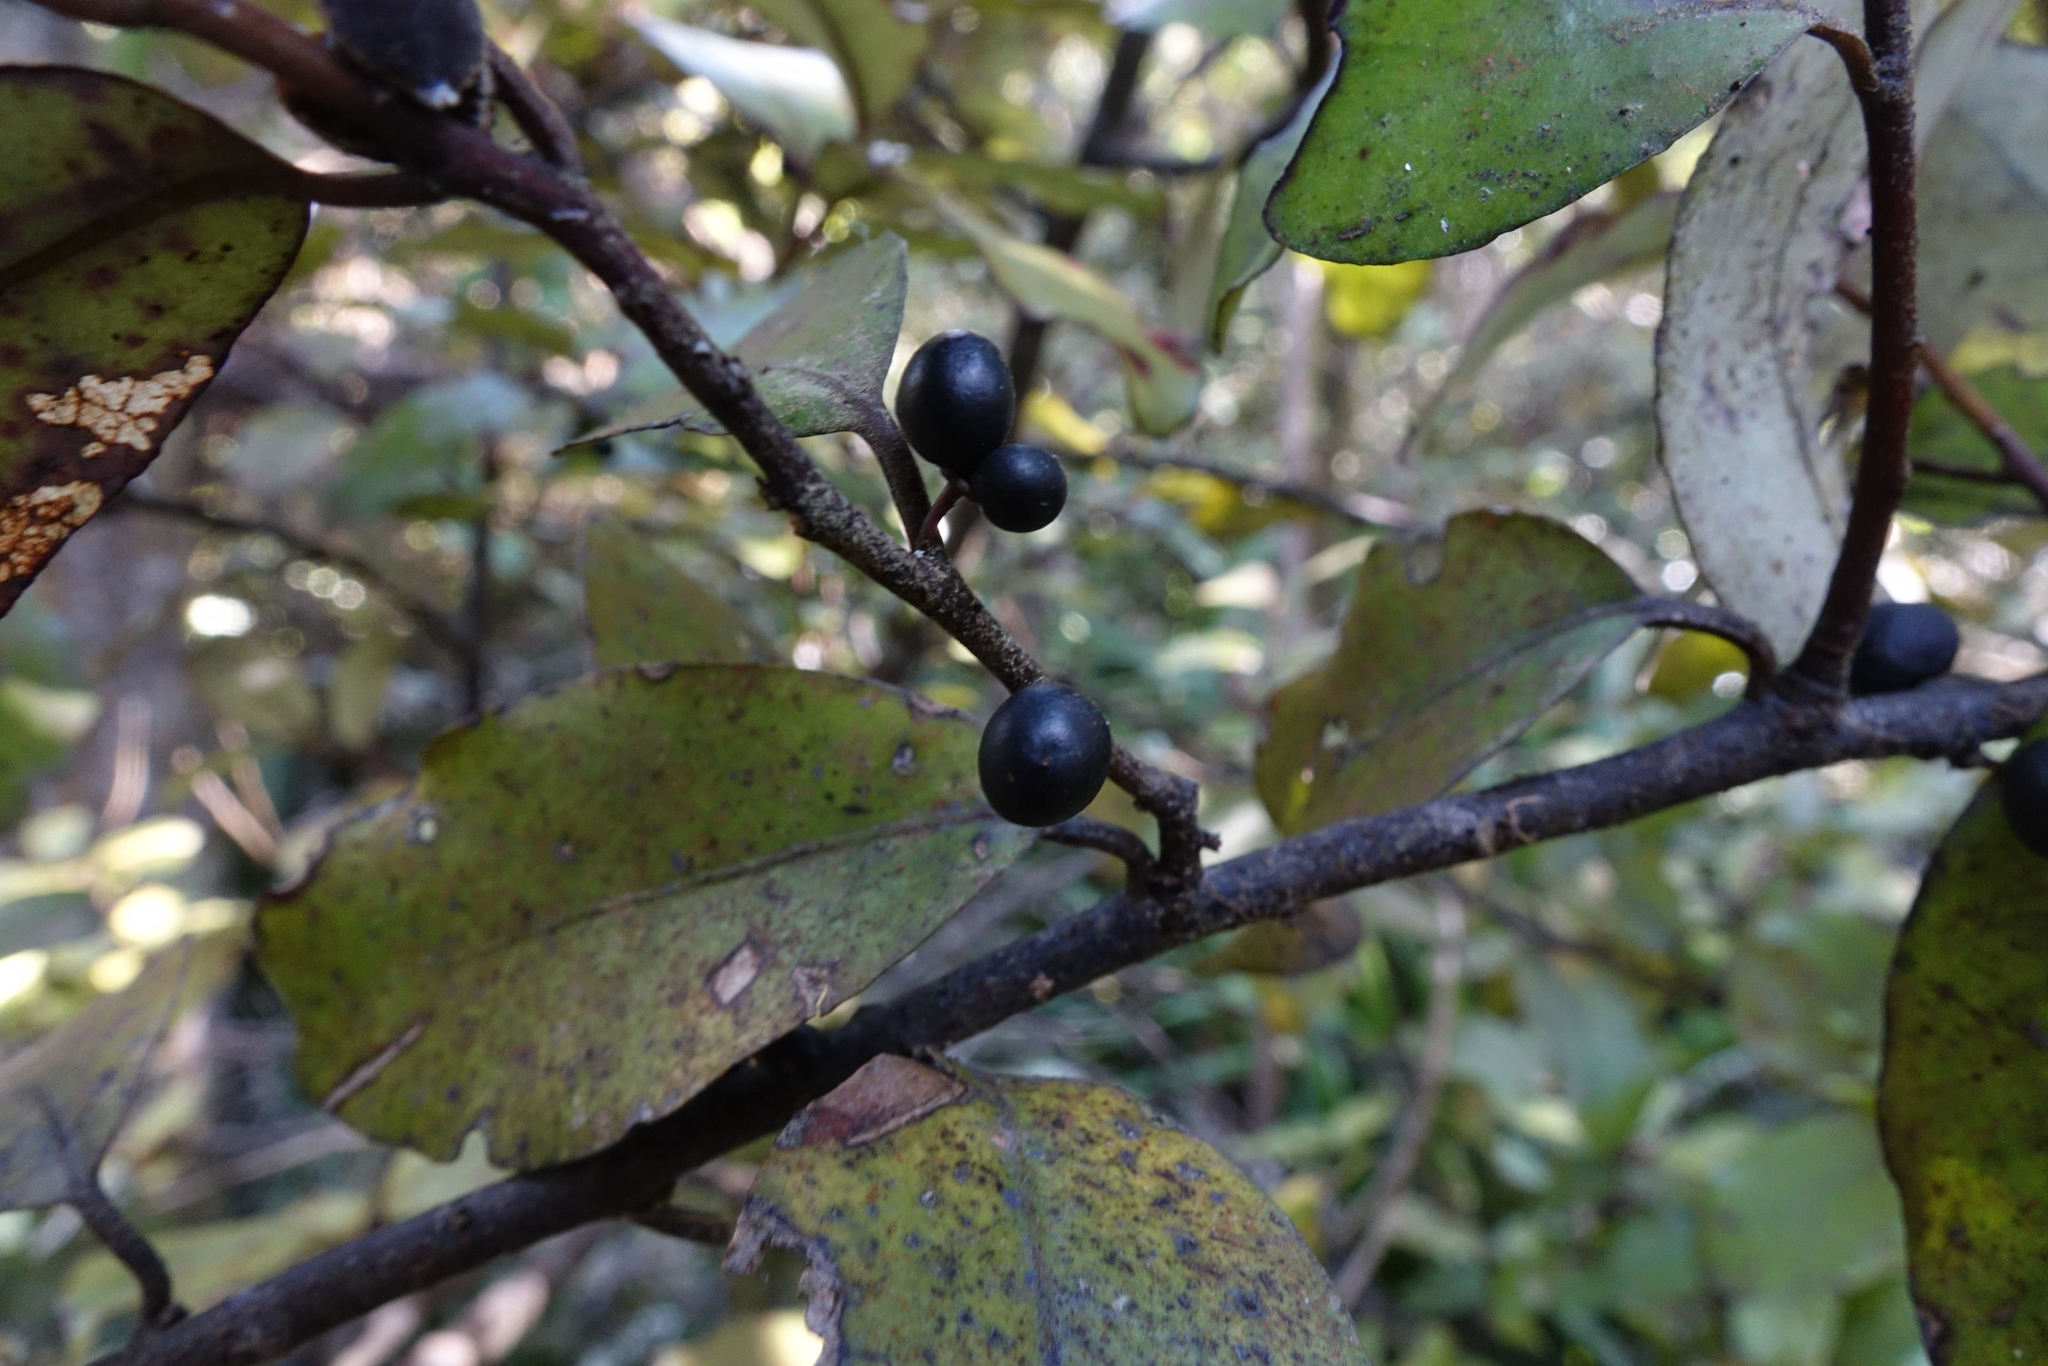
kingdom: Plantae
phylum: Tracheophyta
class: Magnoliopsida
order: Canellales
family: Winteraceae
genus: Pseudowintera
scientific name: Pseudowintera colorata
